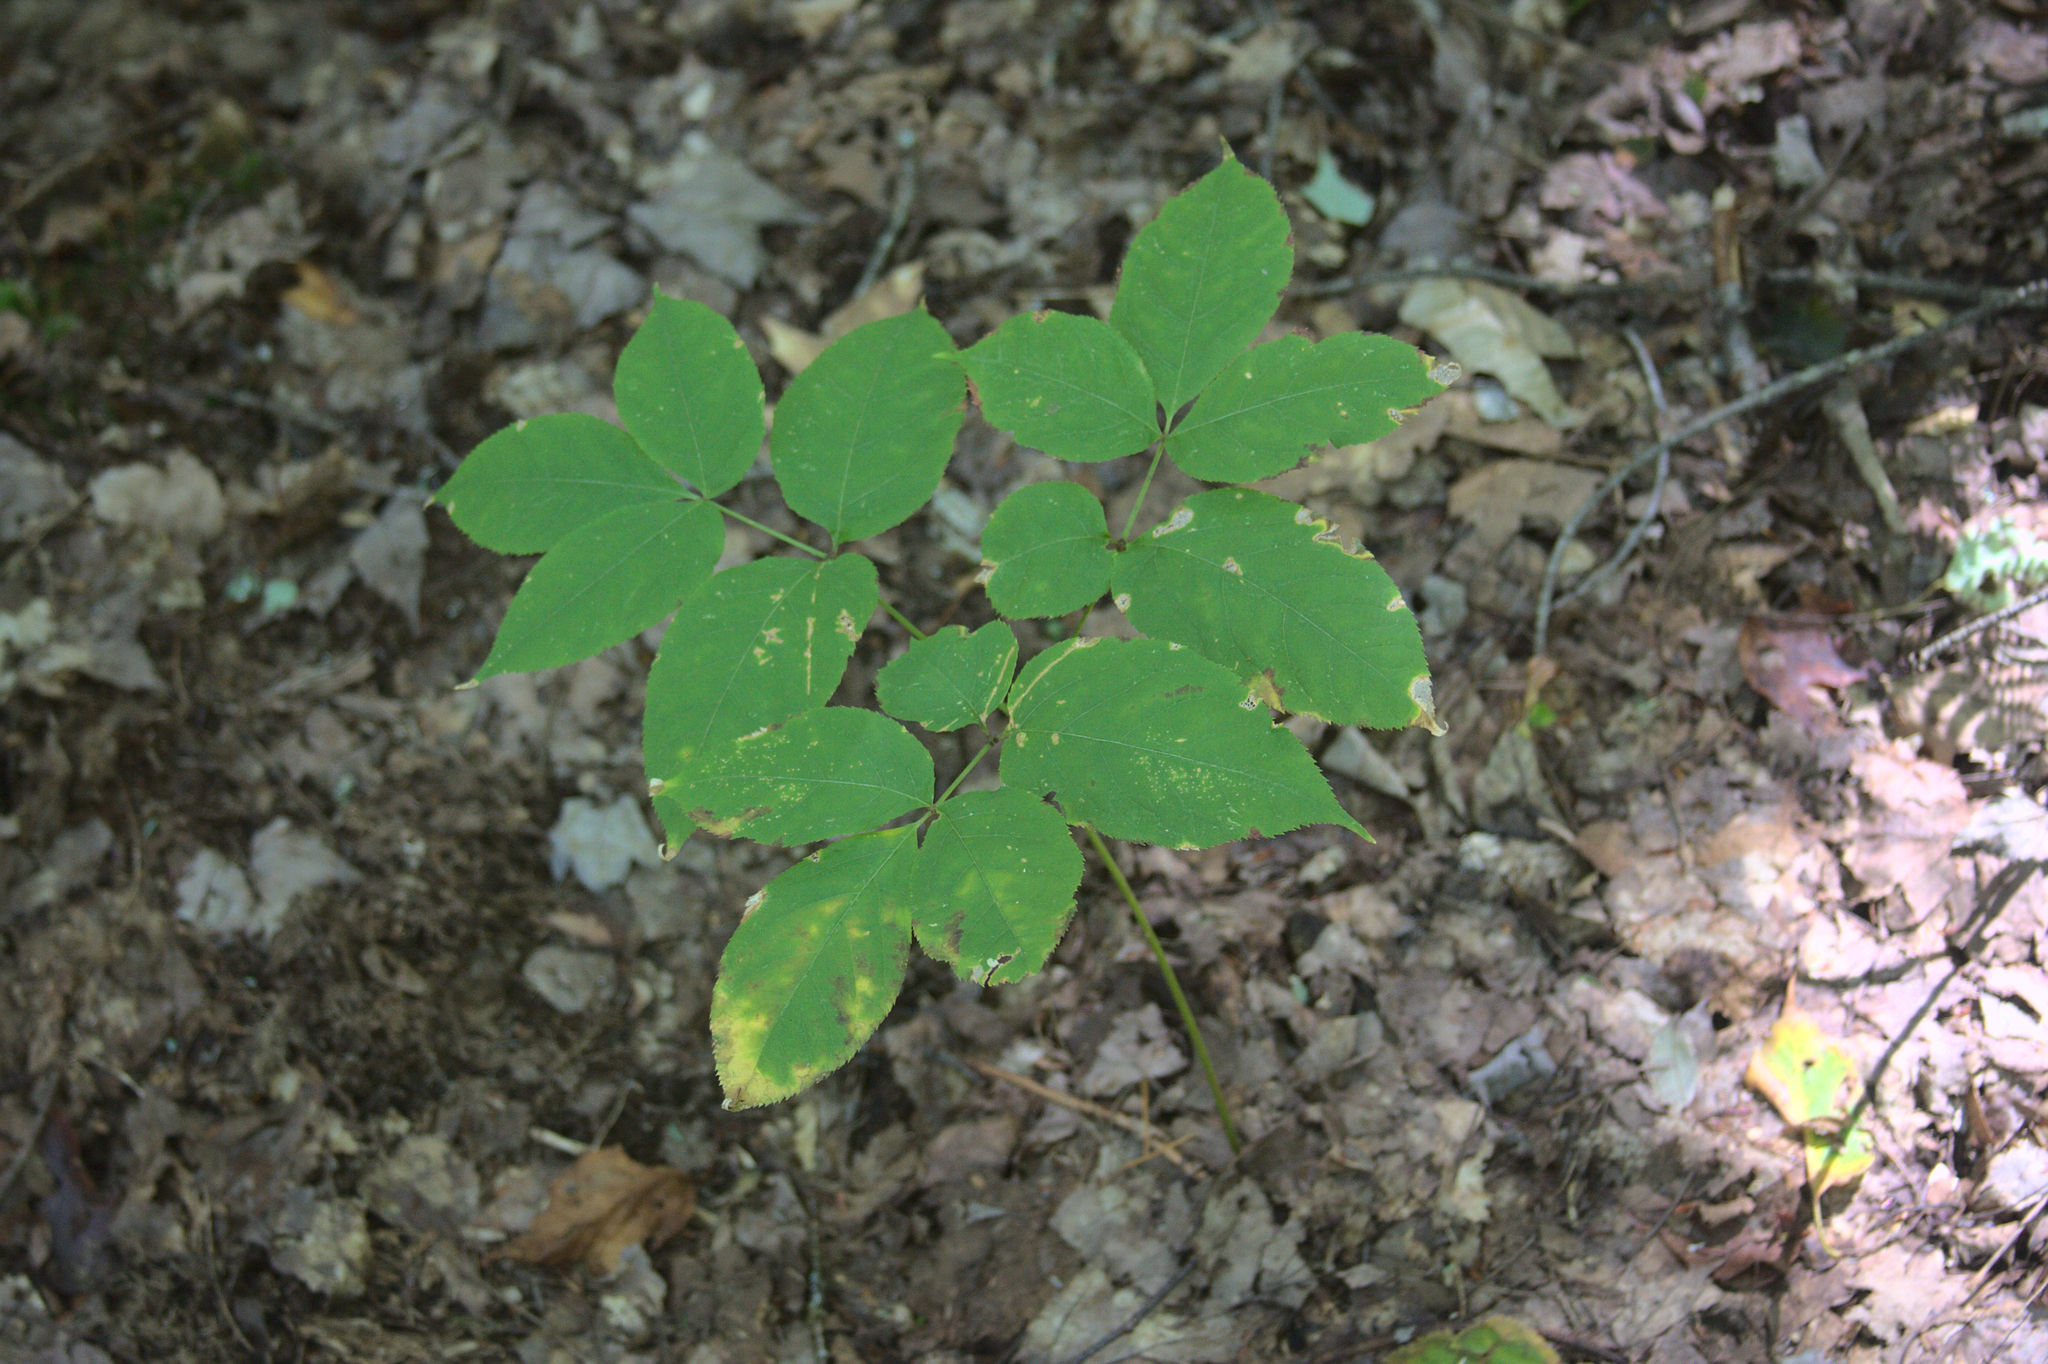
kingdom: Plantae
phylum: Tracheophyta
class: Magnoliopsida
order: Apiales
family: Araliaceae
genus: Aralia
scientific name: Aralia nudicaulis
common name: Wild sarsaparilla
